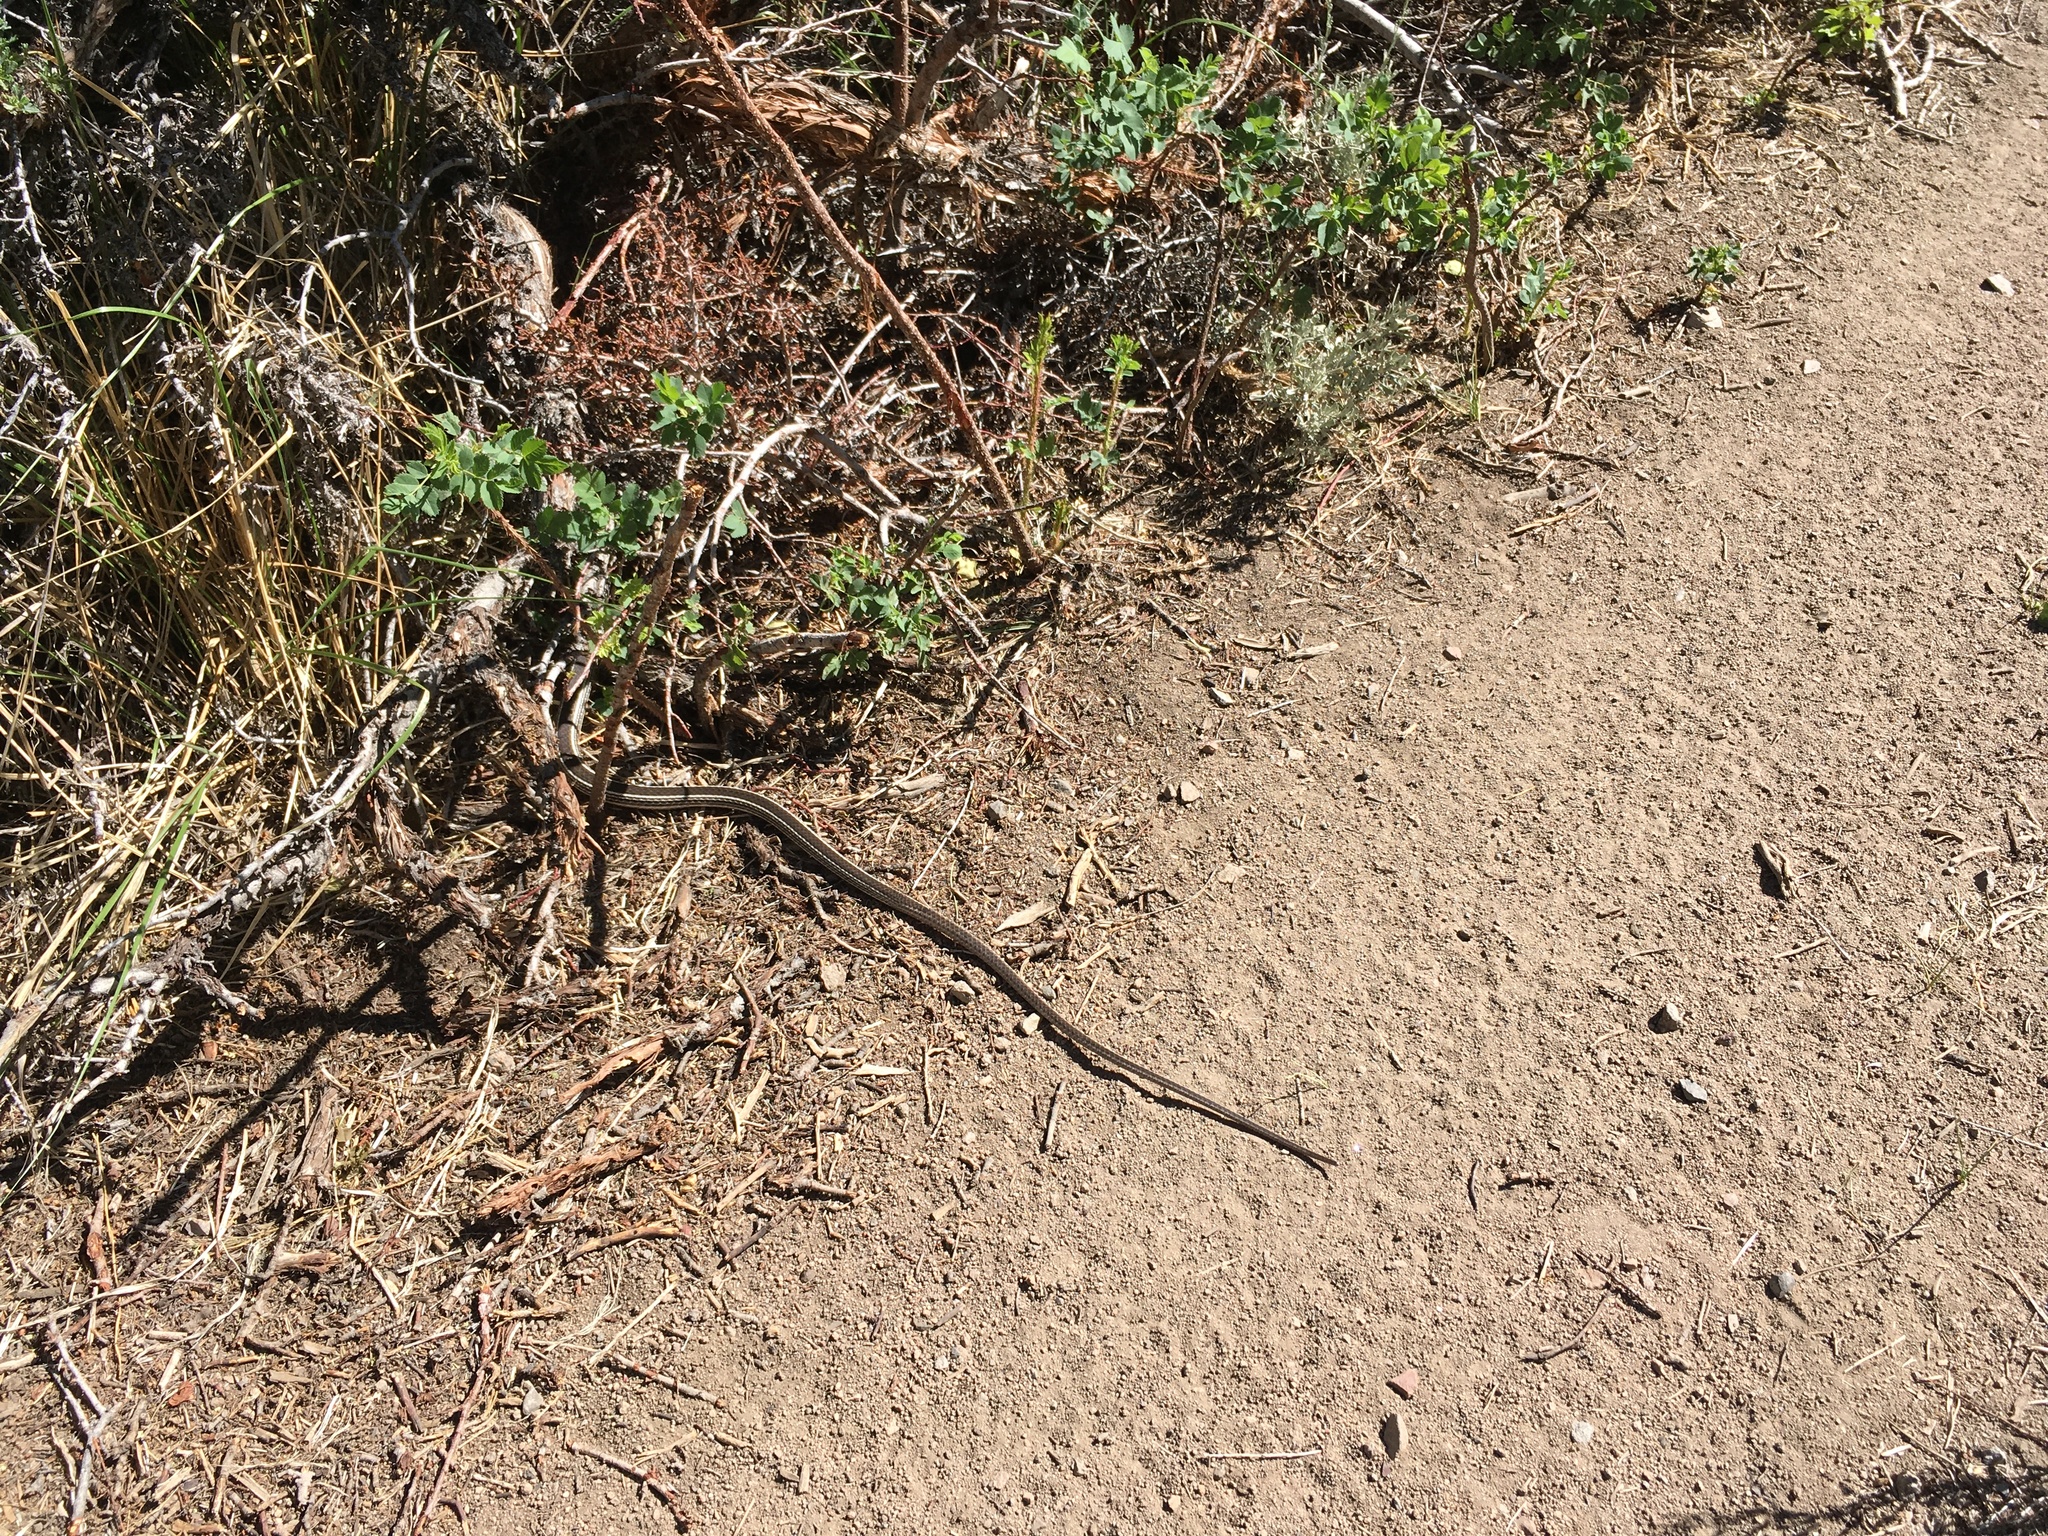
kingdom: Animalia
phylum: Chordata
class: Squamata
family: Colubridae
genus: Masticophis
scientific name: Masticophis taeniatus
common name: Striped whipsnake
